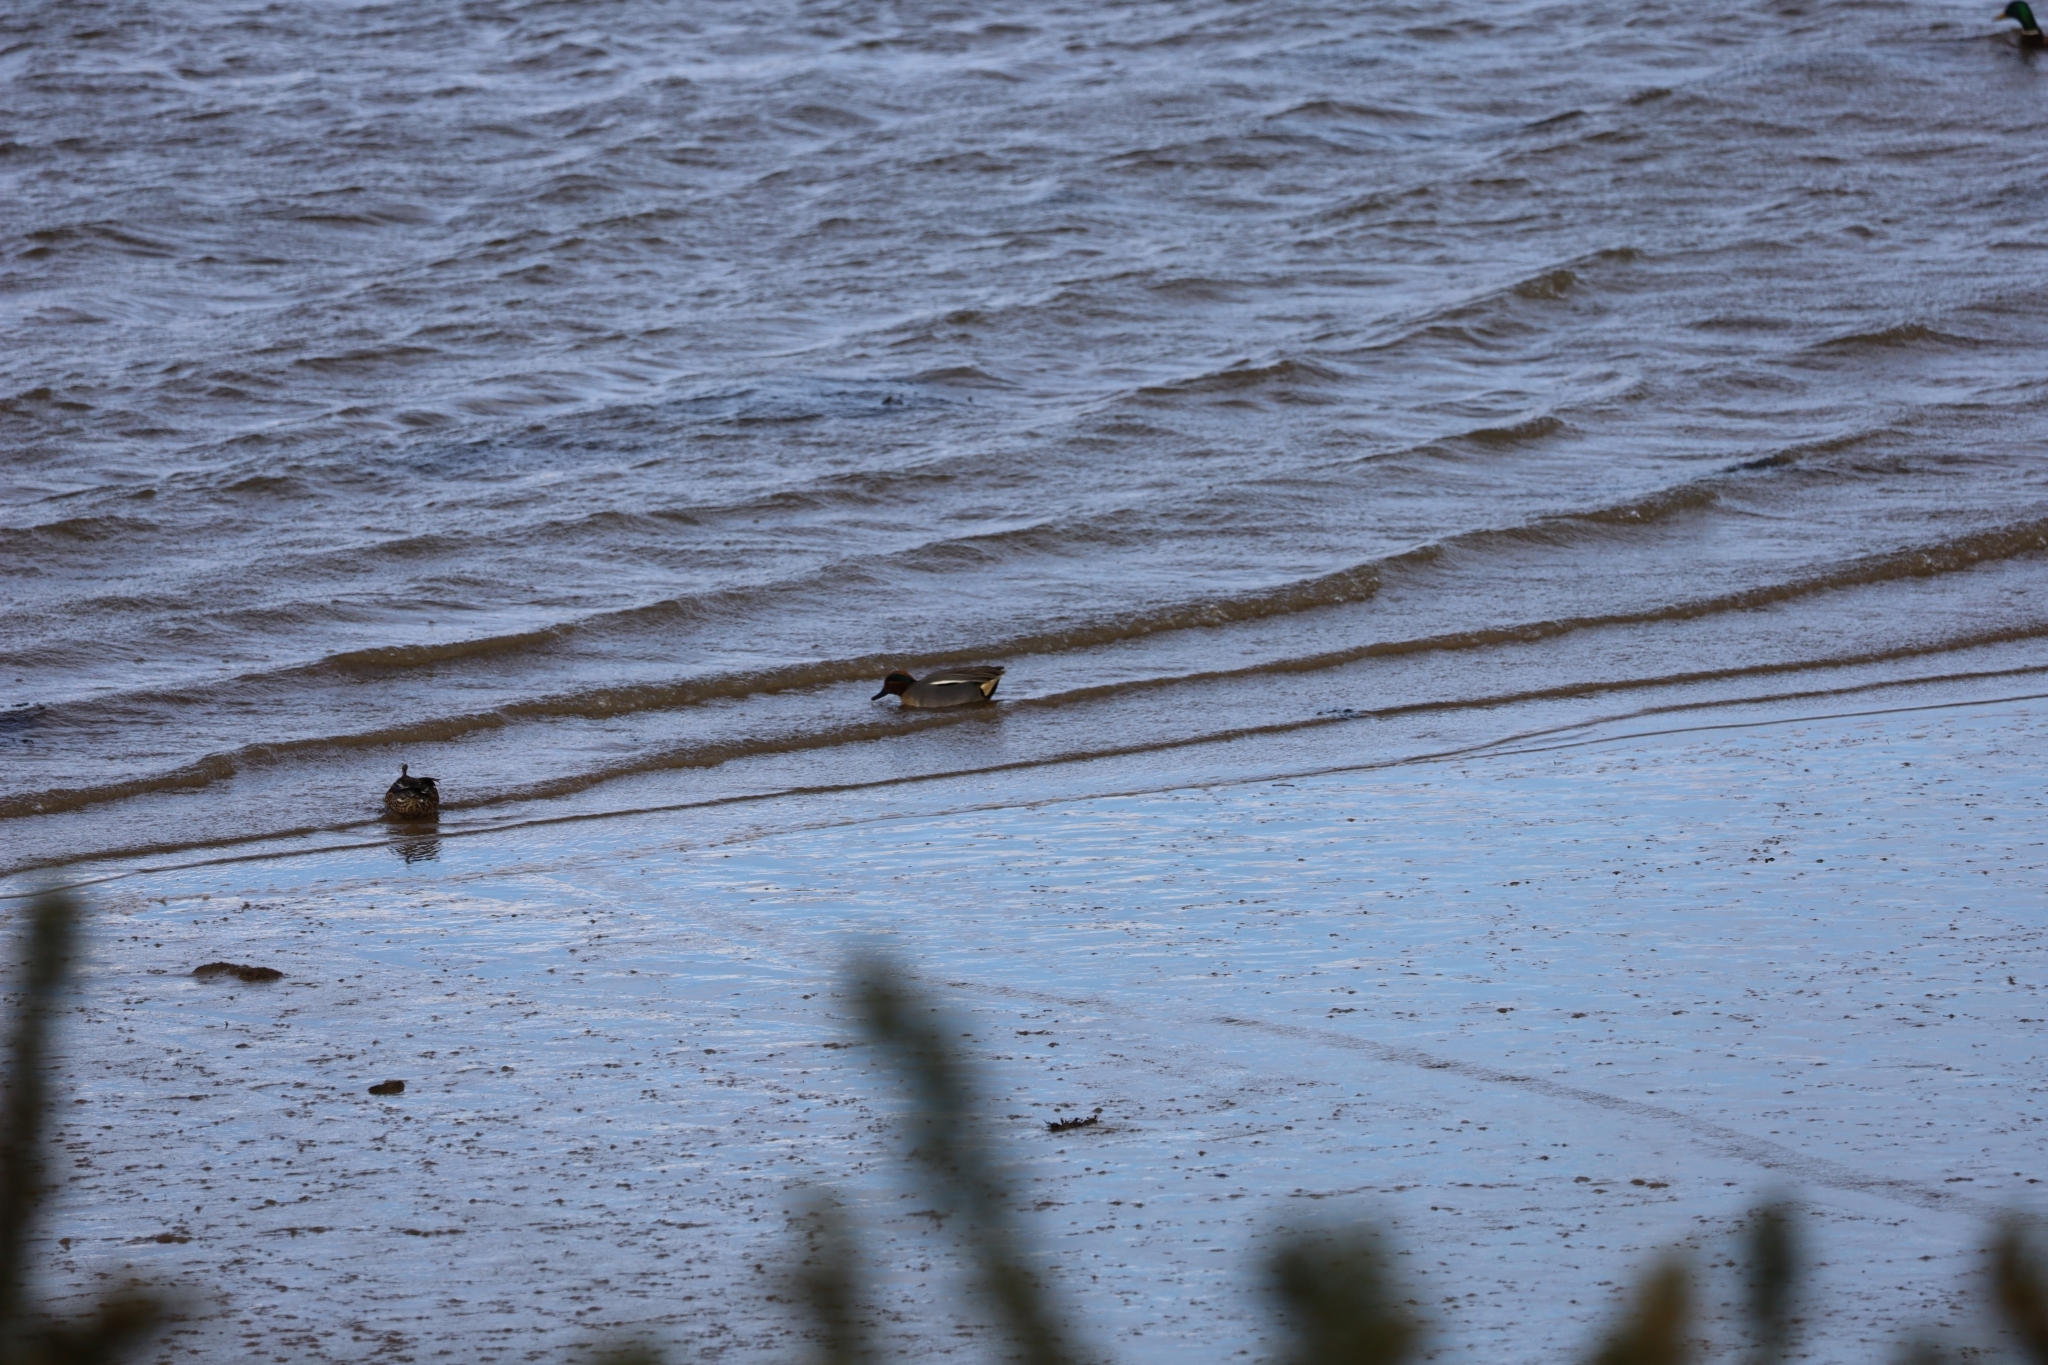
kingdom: Animalia
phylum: Chordata
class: Aves
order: Anseriformes
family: Anatidae
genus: Anas
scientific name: Anas crecca
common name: Eurasian teal
